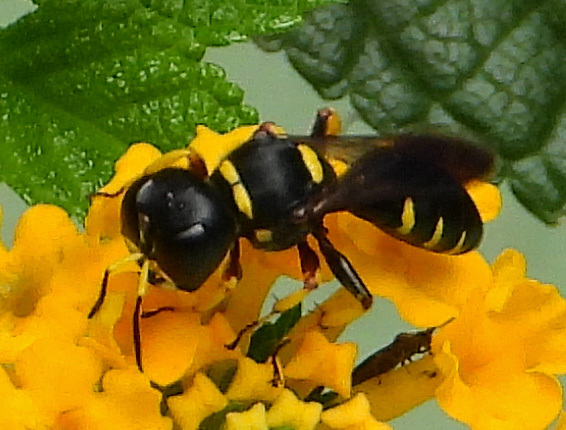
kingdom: Animalia
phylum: Arthropoda
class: Insecta
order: Hymenoptera
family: Crabronidae
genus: Ectemnius
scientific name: Ectemnius maculosus
